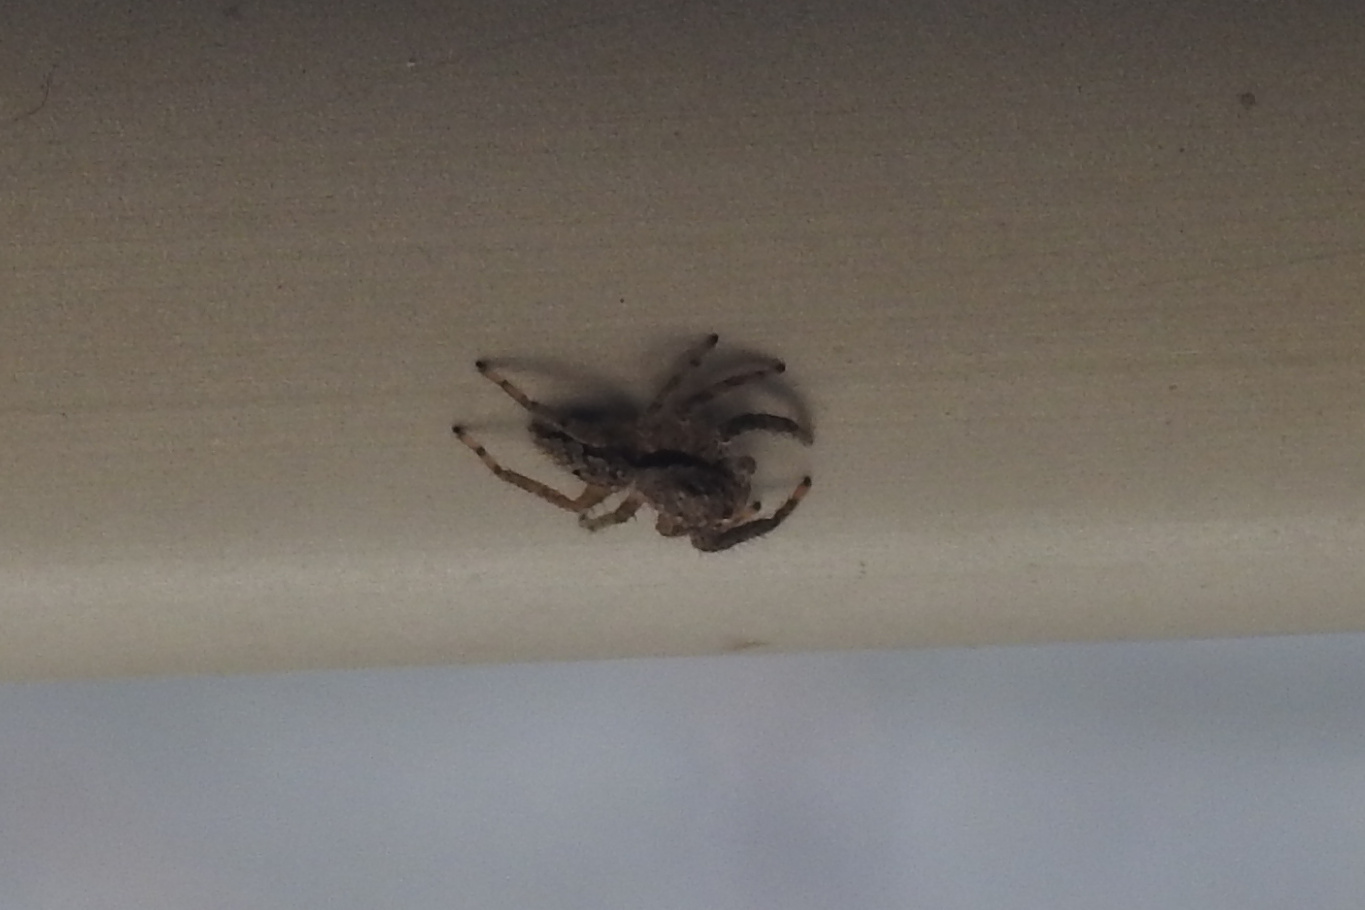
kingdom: Animalia
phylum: Arthropoda
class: Arachnida
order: Araneae
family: Salticidae
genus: Platycryptus
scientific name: Platycryptus undatus
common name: Tan jumping spider
